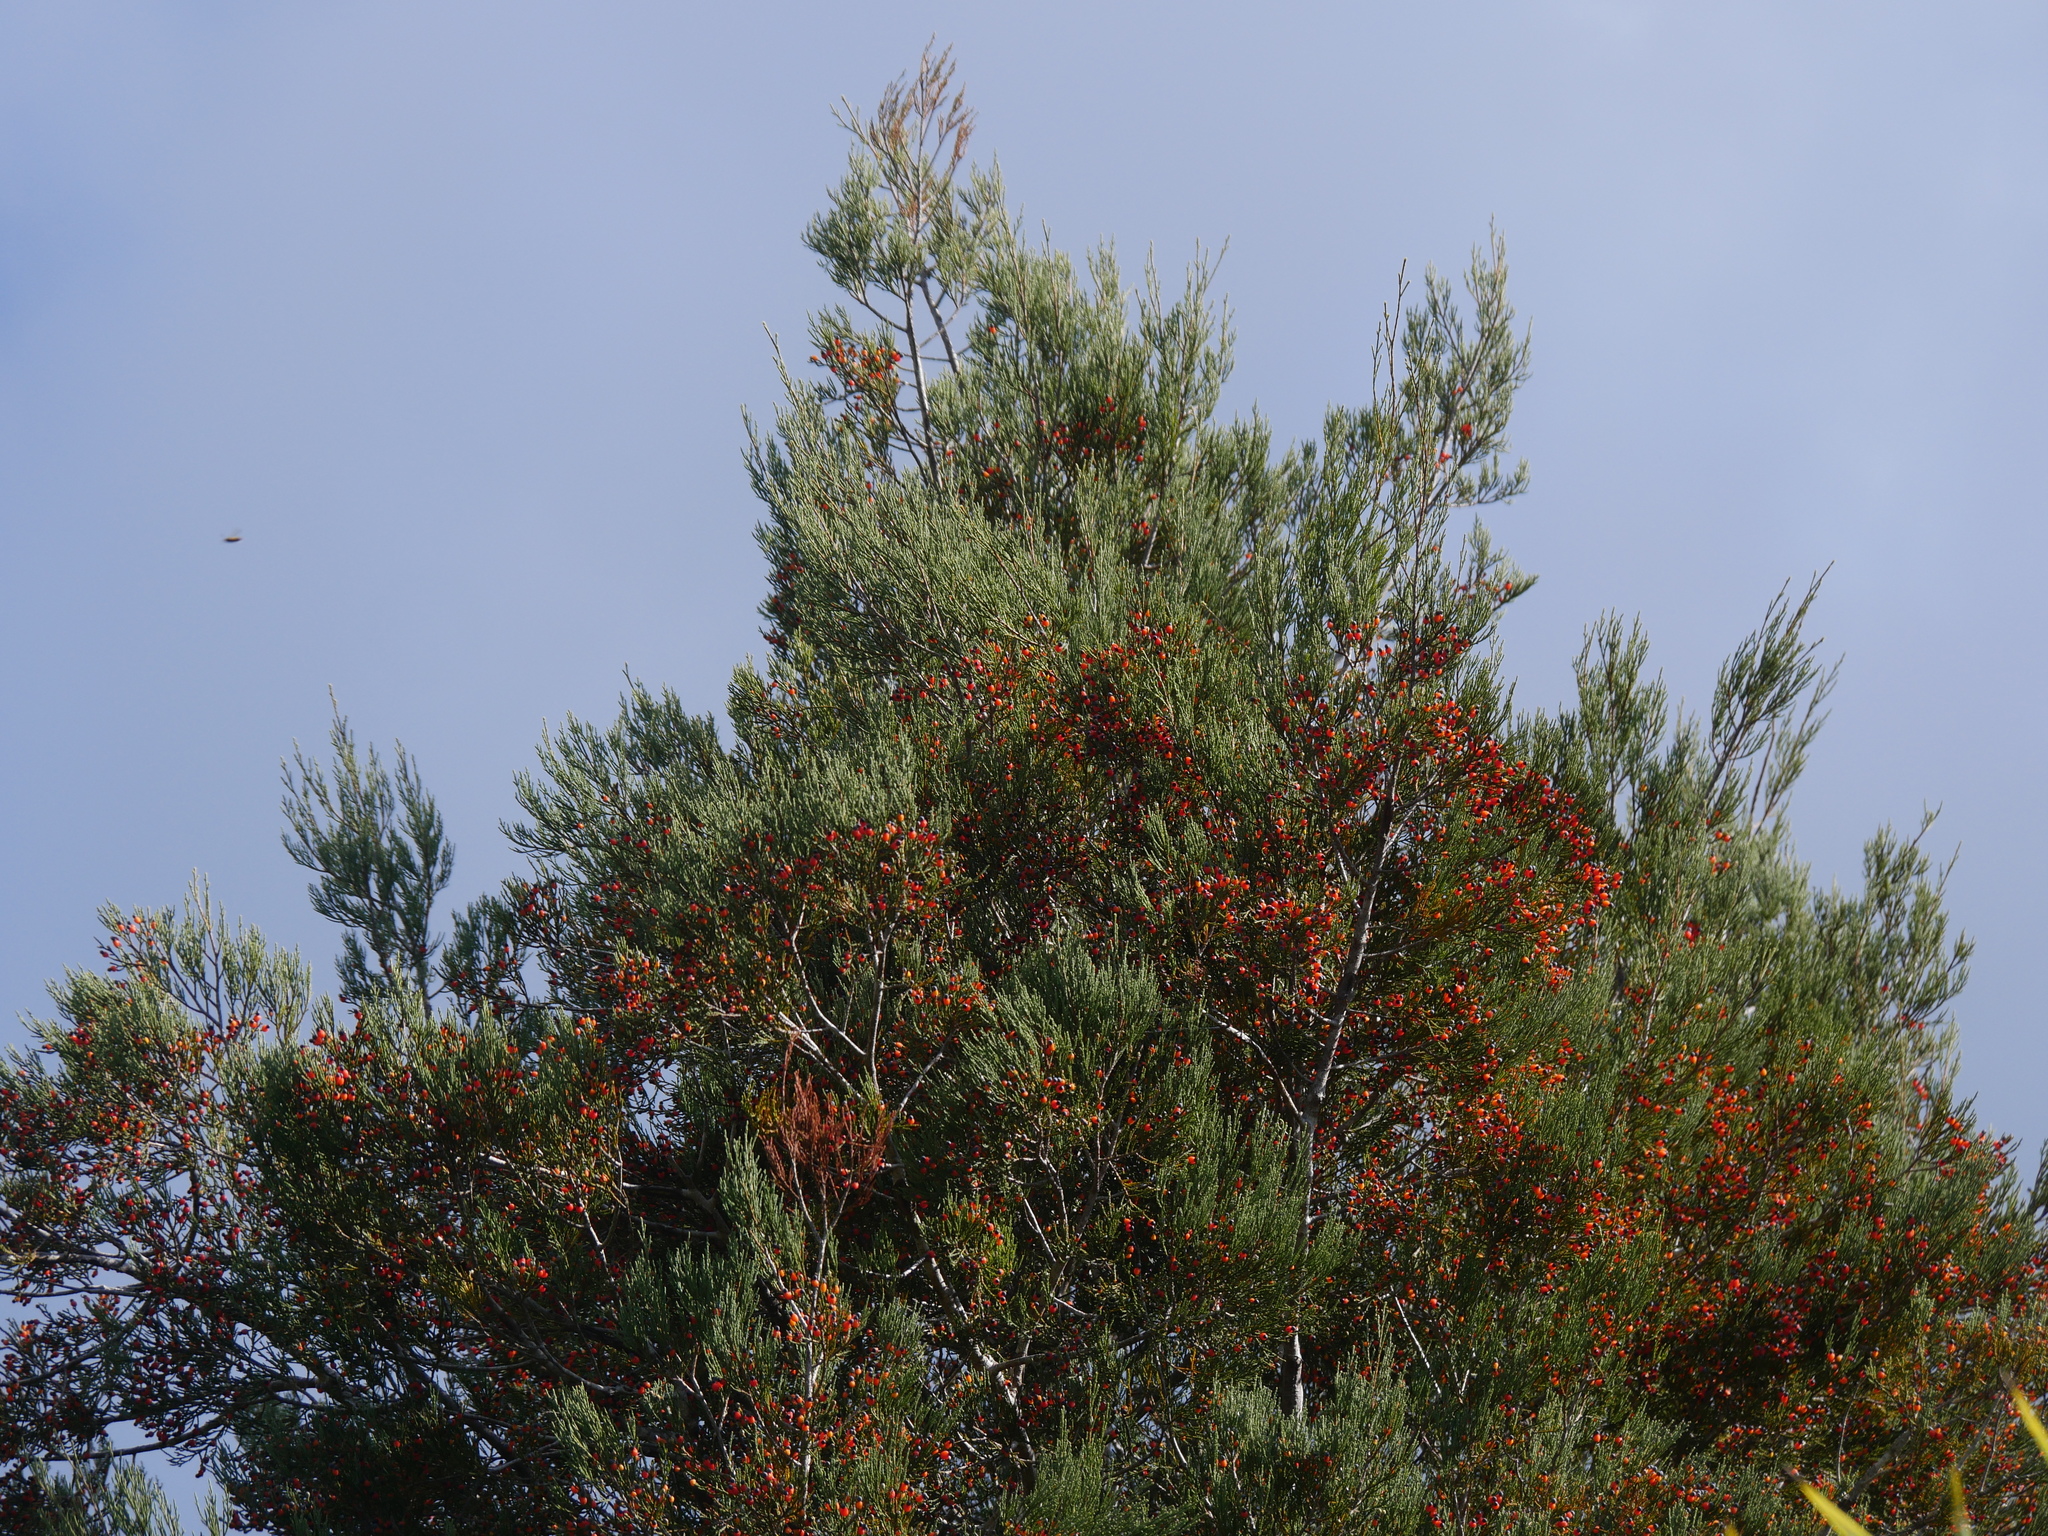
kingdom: Plantae
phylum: Tracheophyta
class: Pinopsida
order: Pinales
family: Podocarpaceae
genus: Dacrycarpus
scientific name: Dacrycarpus dacrydioides
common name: White pine
